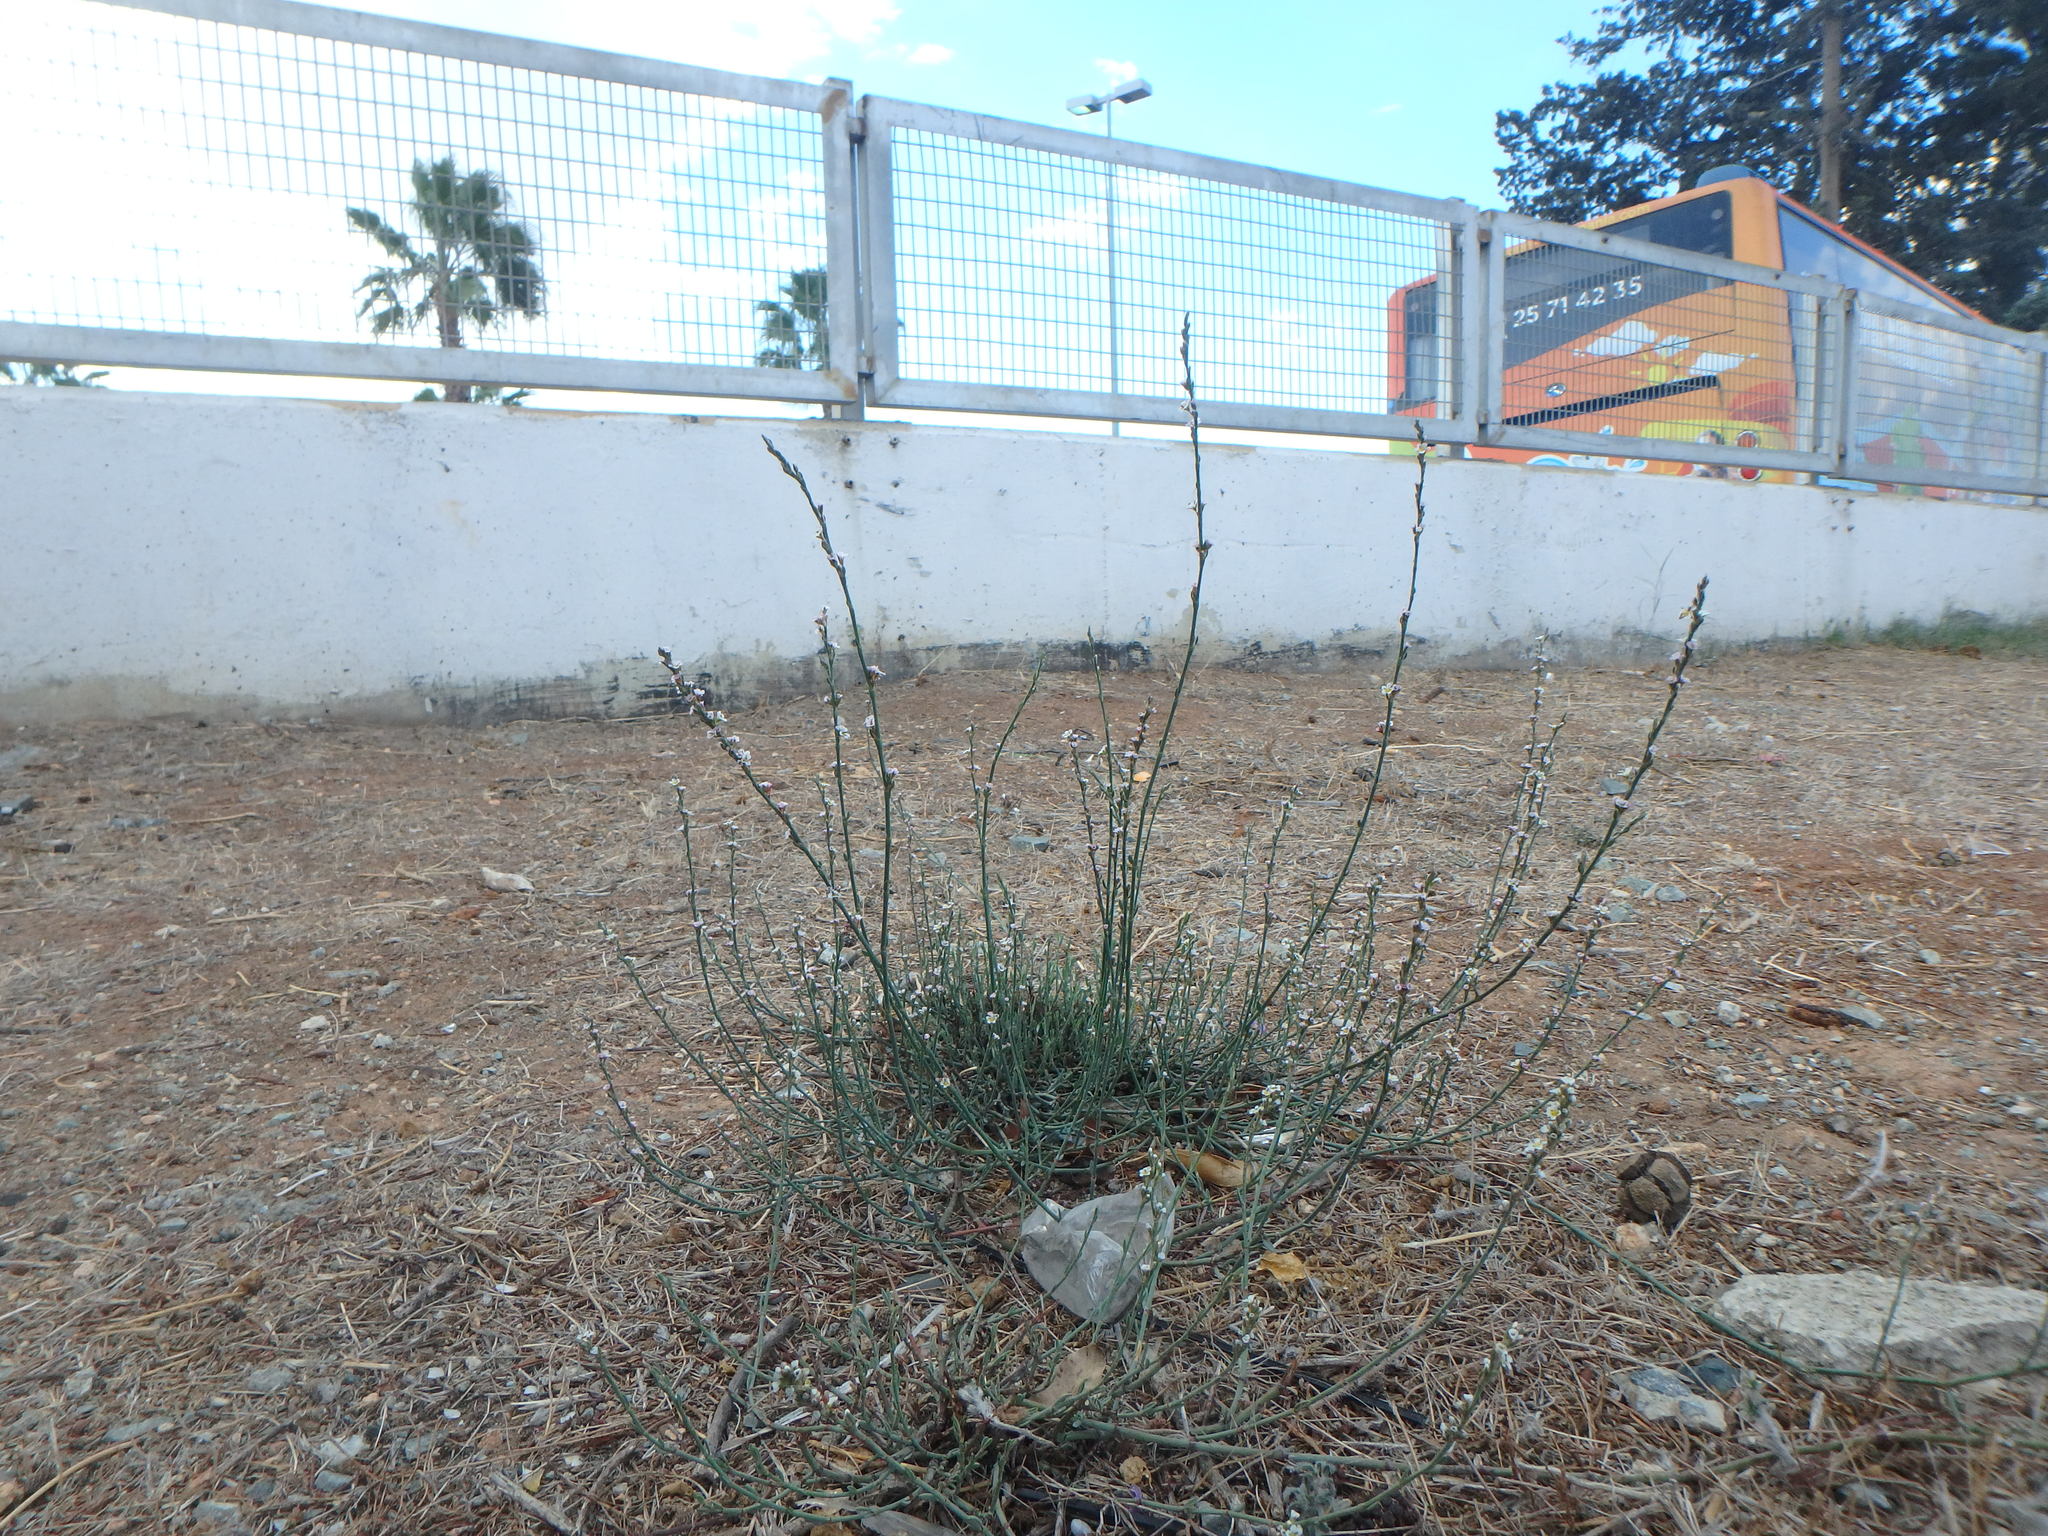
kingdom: Plantae
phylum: Tracheophyta
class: Magnoliopsida
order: Caryophyllales
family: Polygonaceae
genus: Polygonum
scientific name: Polygonum equisetiforme
